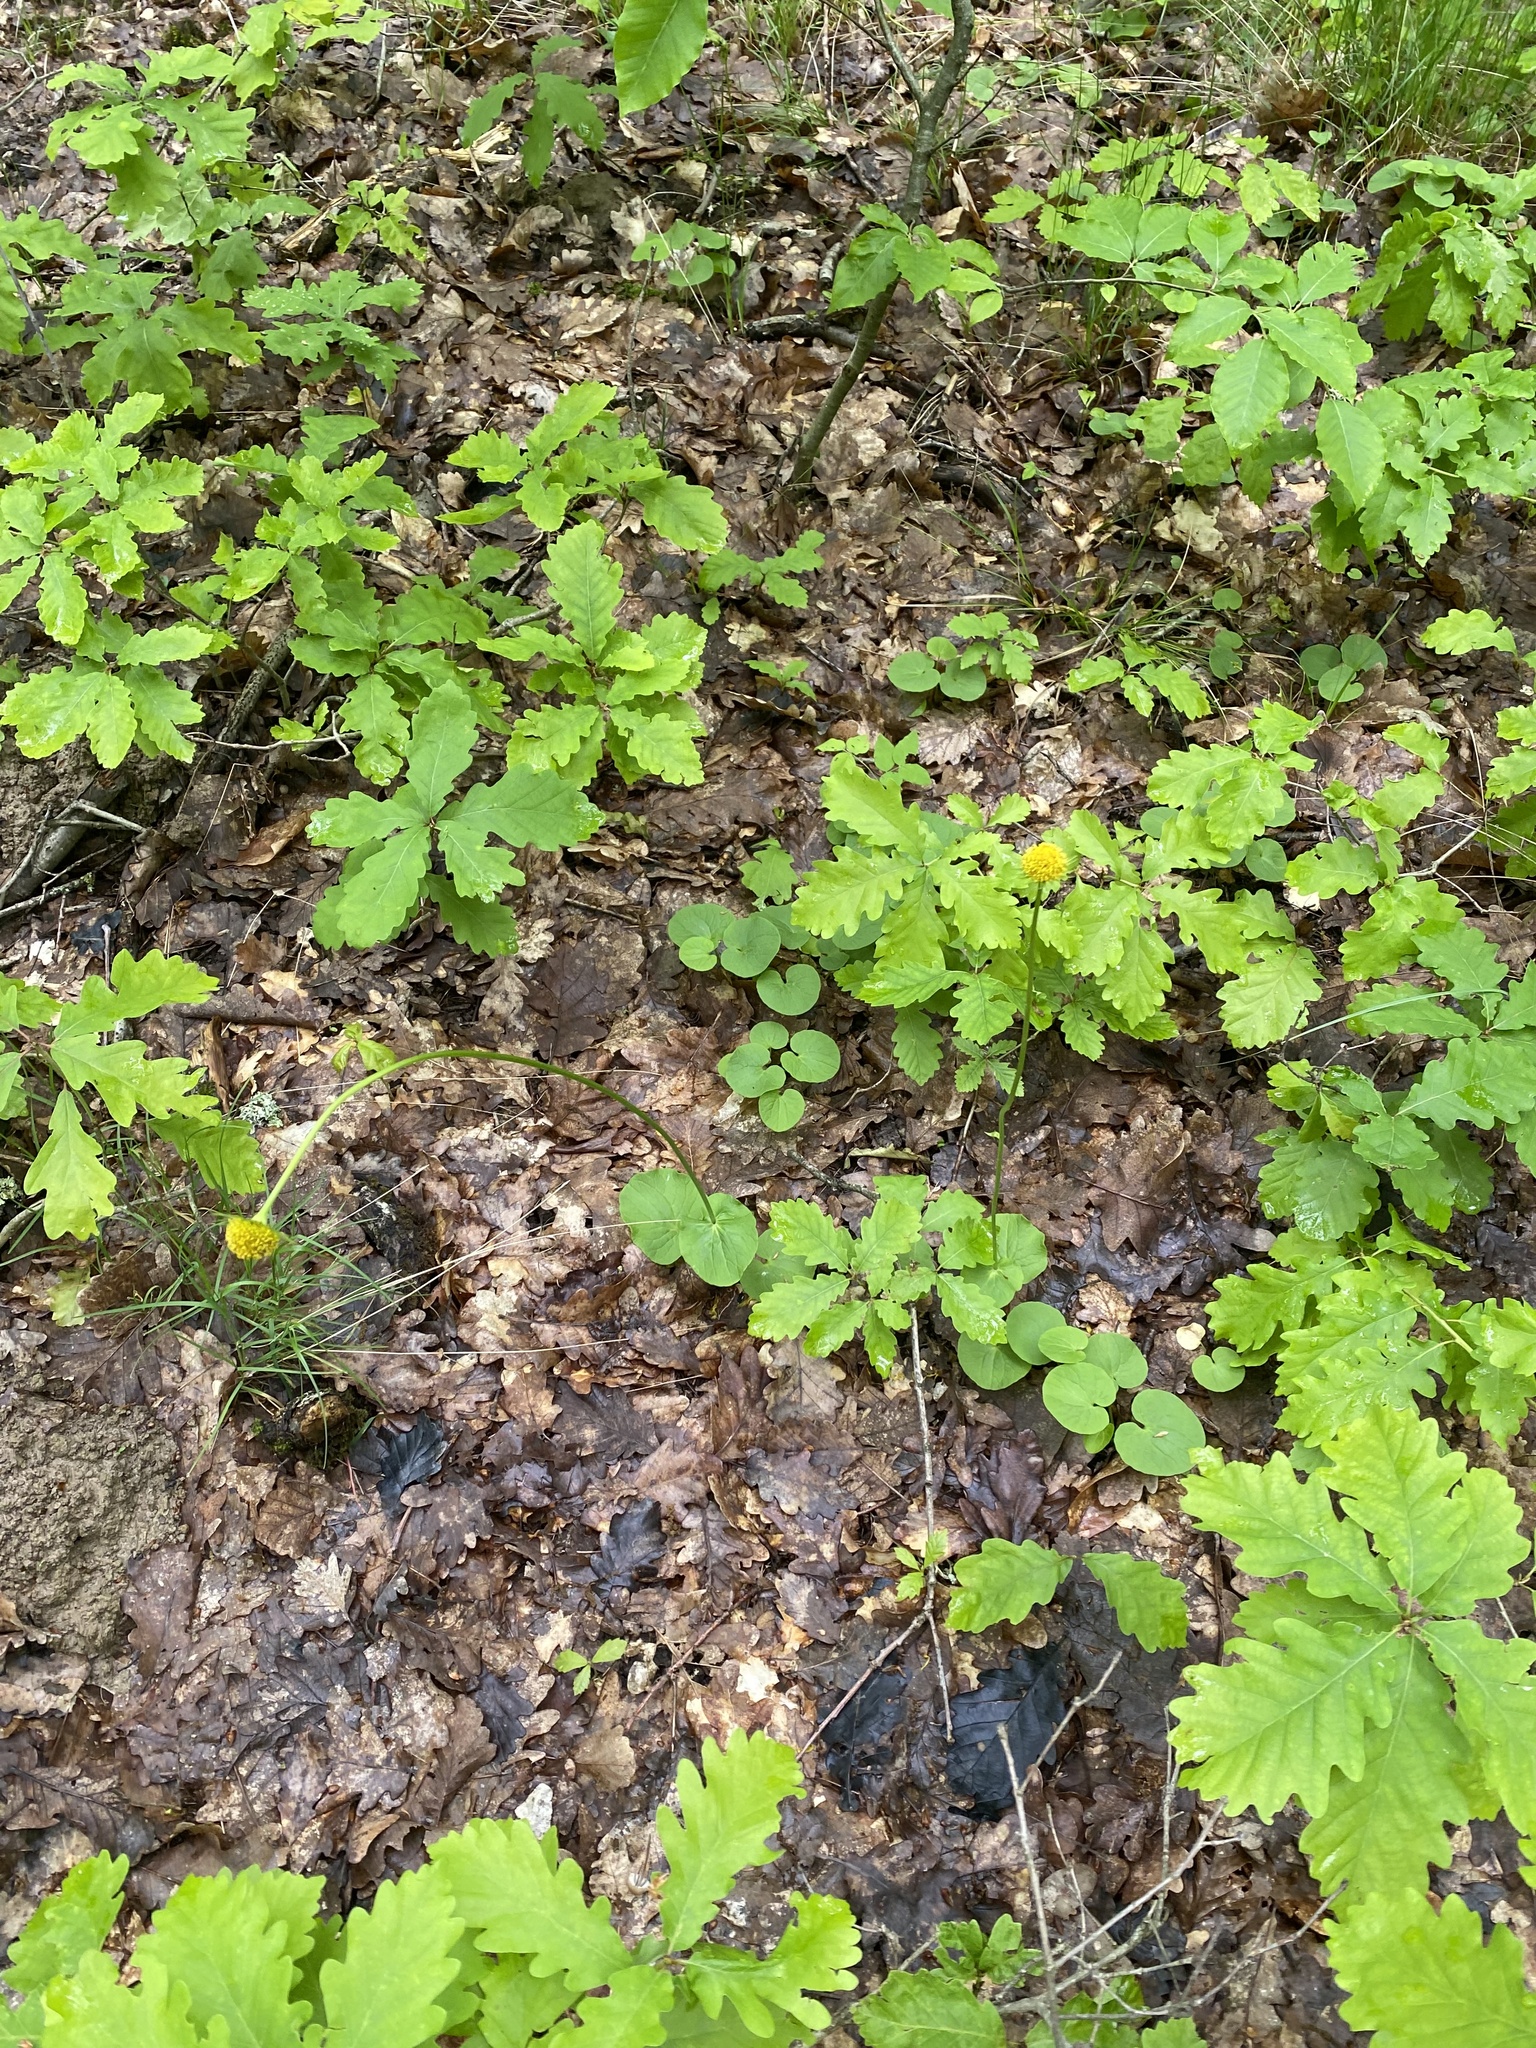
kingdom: Plantae
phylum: Tracheophyta
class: Magnoliopsida
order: Asterales
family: Asteraceae
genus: Doronicum
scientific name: Doronicum
